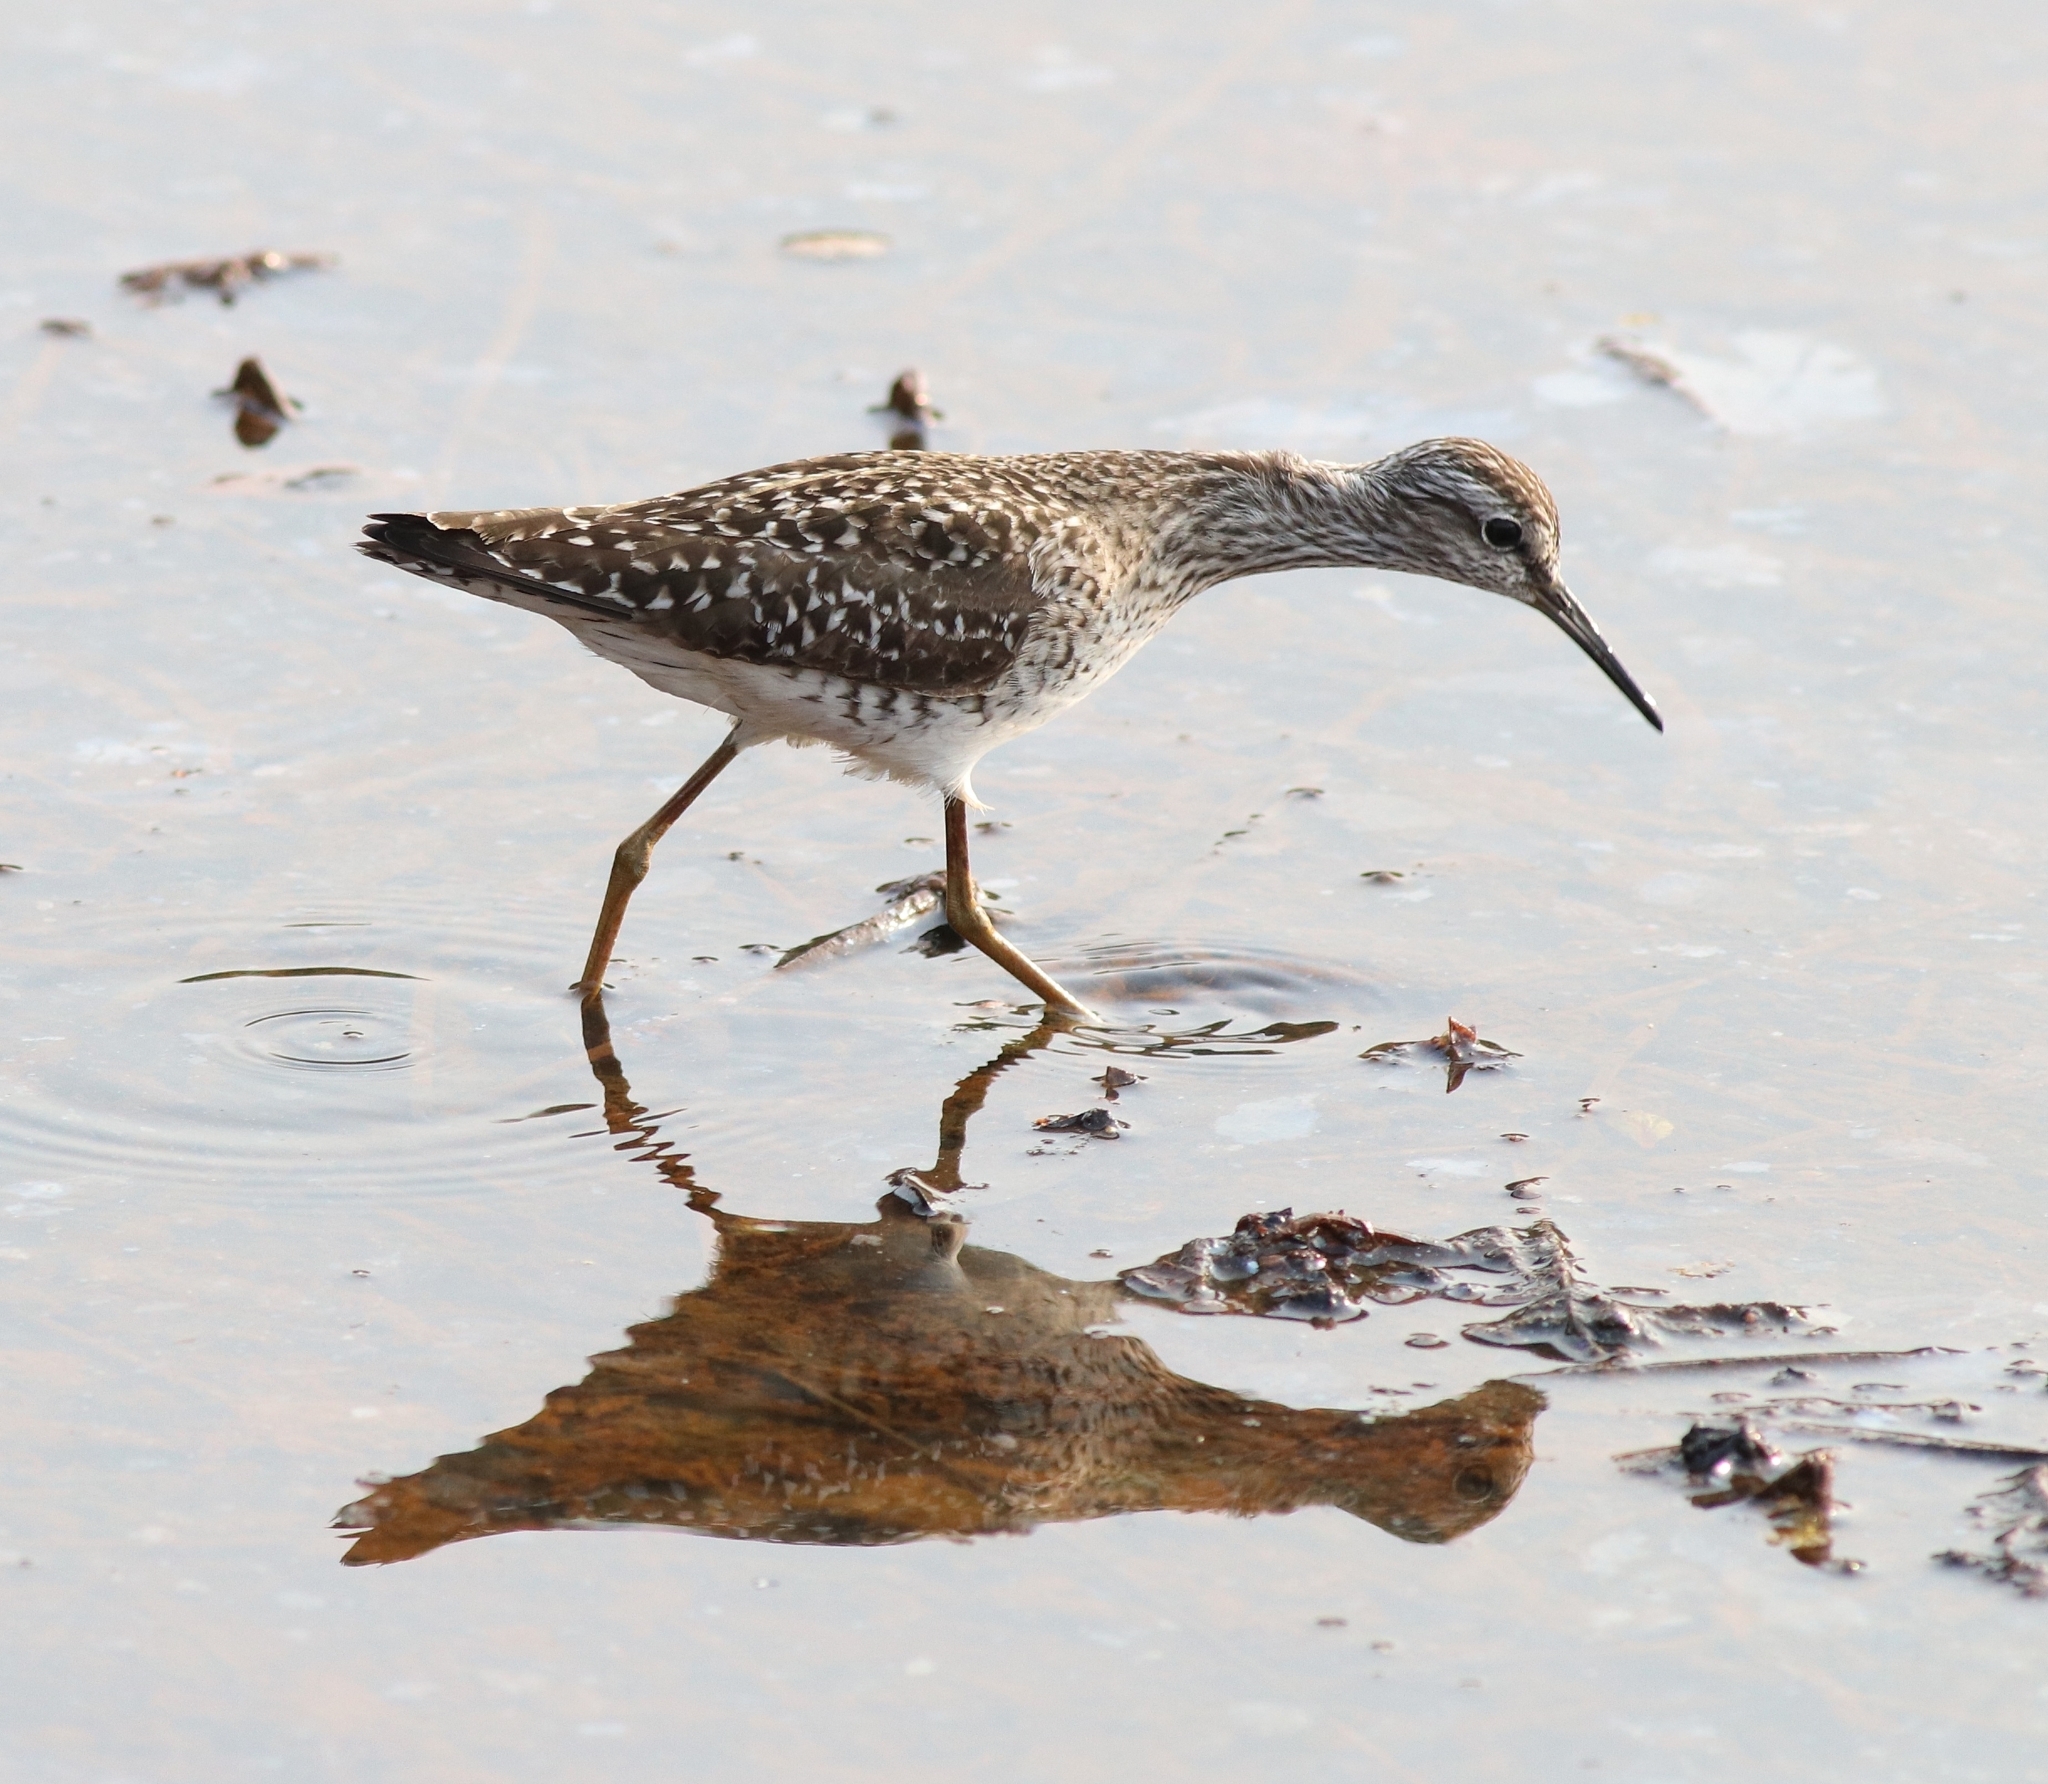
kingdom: Animalia
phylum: Chordata
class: Aves
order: Charadriiformes
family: Scolopacidae
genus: Tringa
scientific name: Tringa glareola
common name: Wood sandpiper
